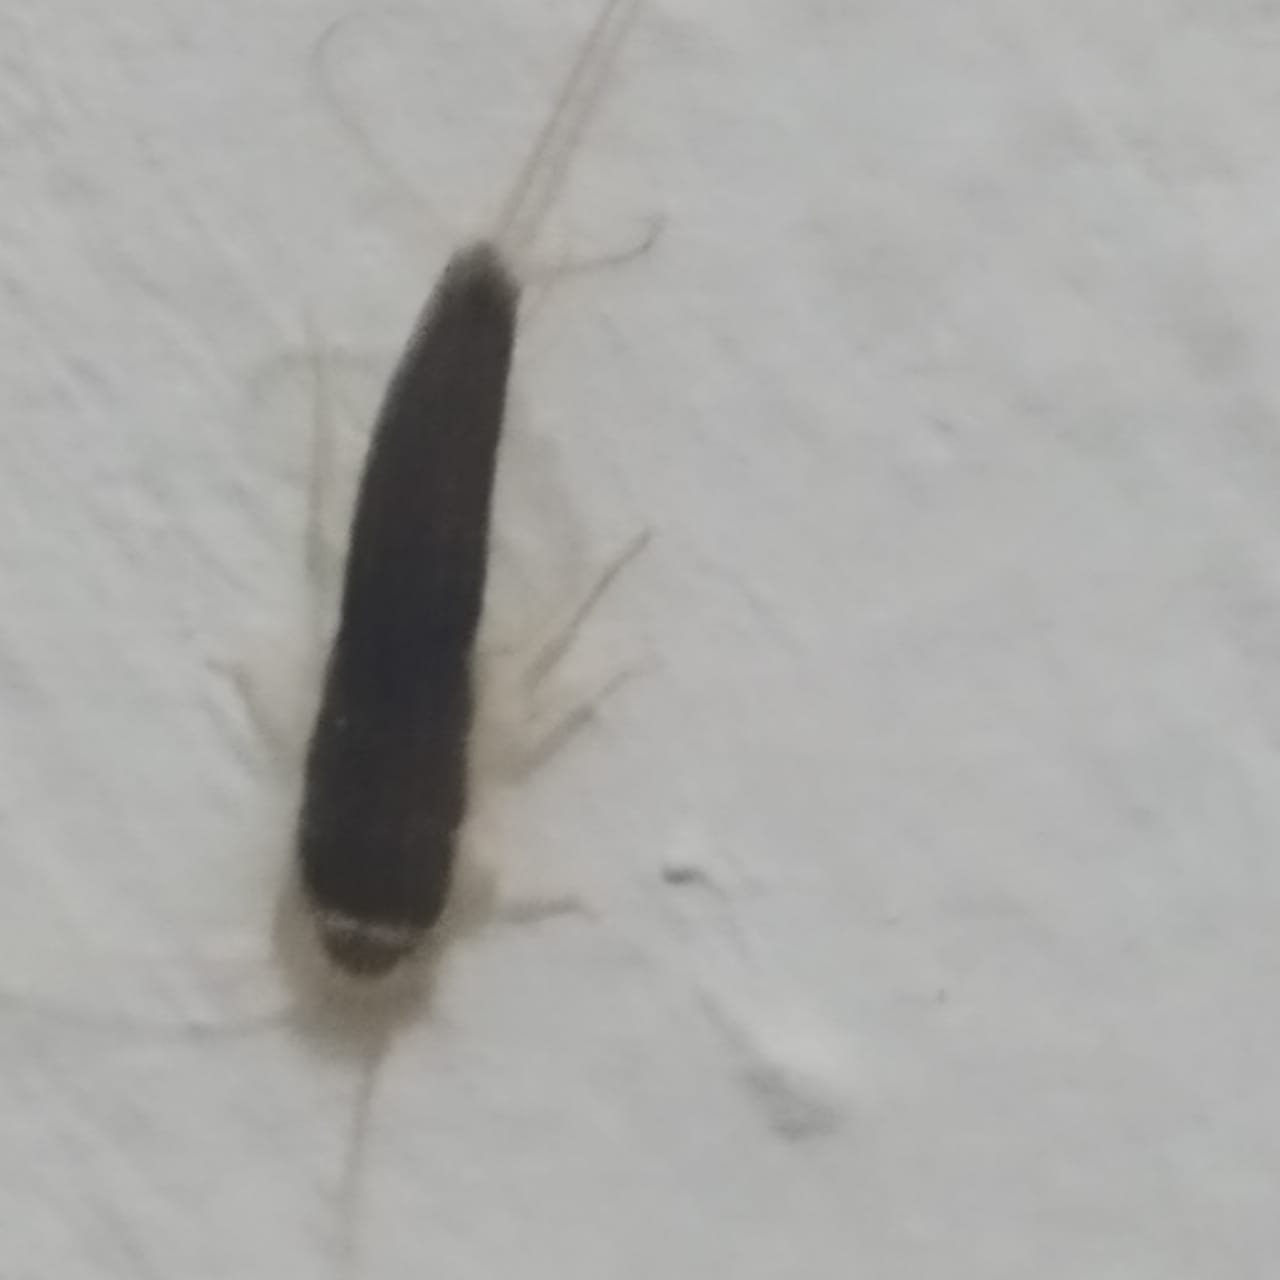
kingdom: Animalia
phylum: Arthropoda
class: Insecta
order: Zygentoma
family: Lepismatidae
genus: Ctenolepisma
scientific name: Ctenolepisma longicaudatum
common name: Silverfish
